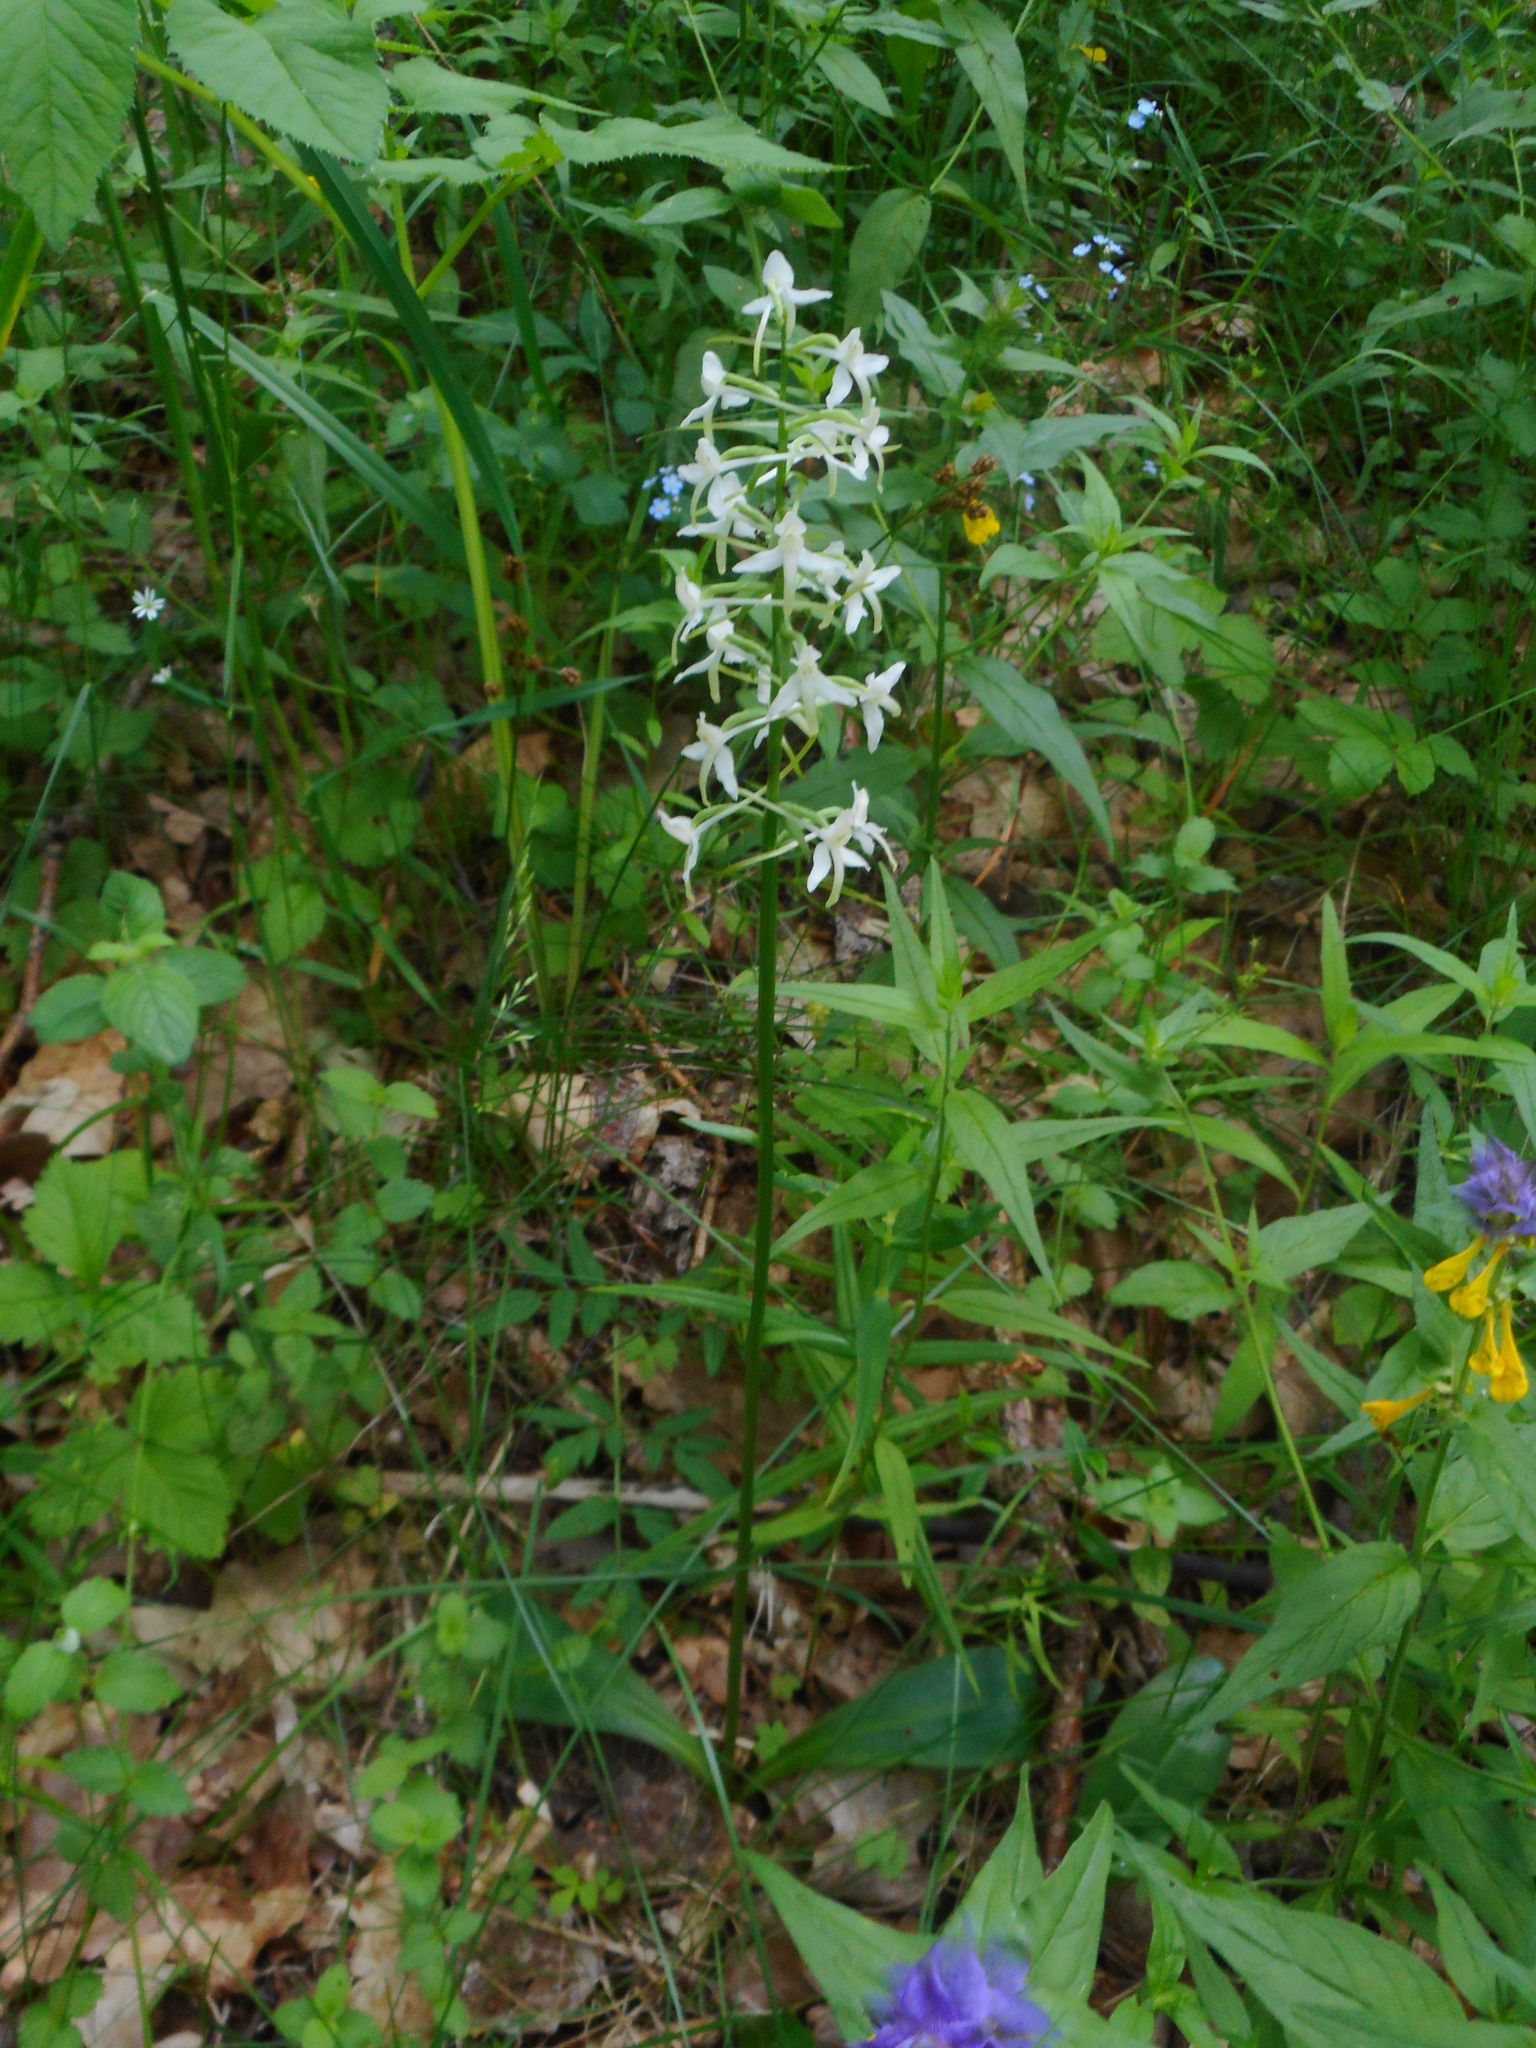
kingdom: Plantae
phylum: Tracheophyta
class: Liliopsida
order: Asparagales
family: Orchidaceae
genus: Platanthera
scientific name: Platanthera bifolia
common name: Lesser butterfly-orchid
